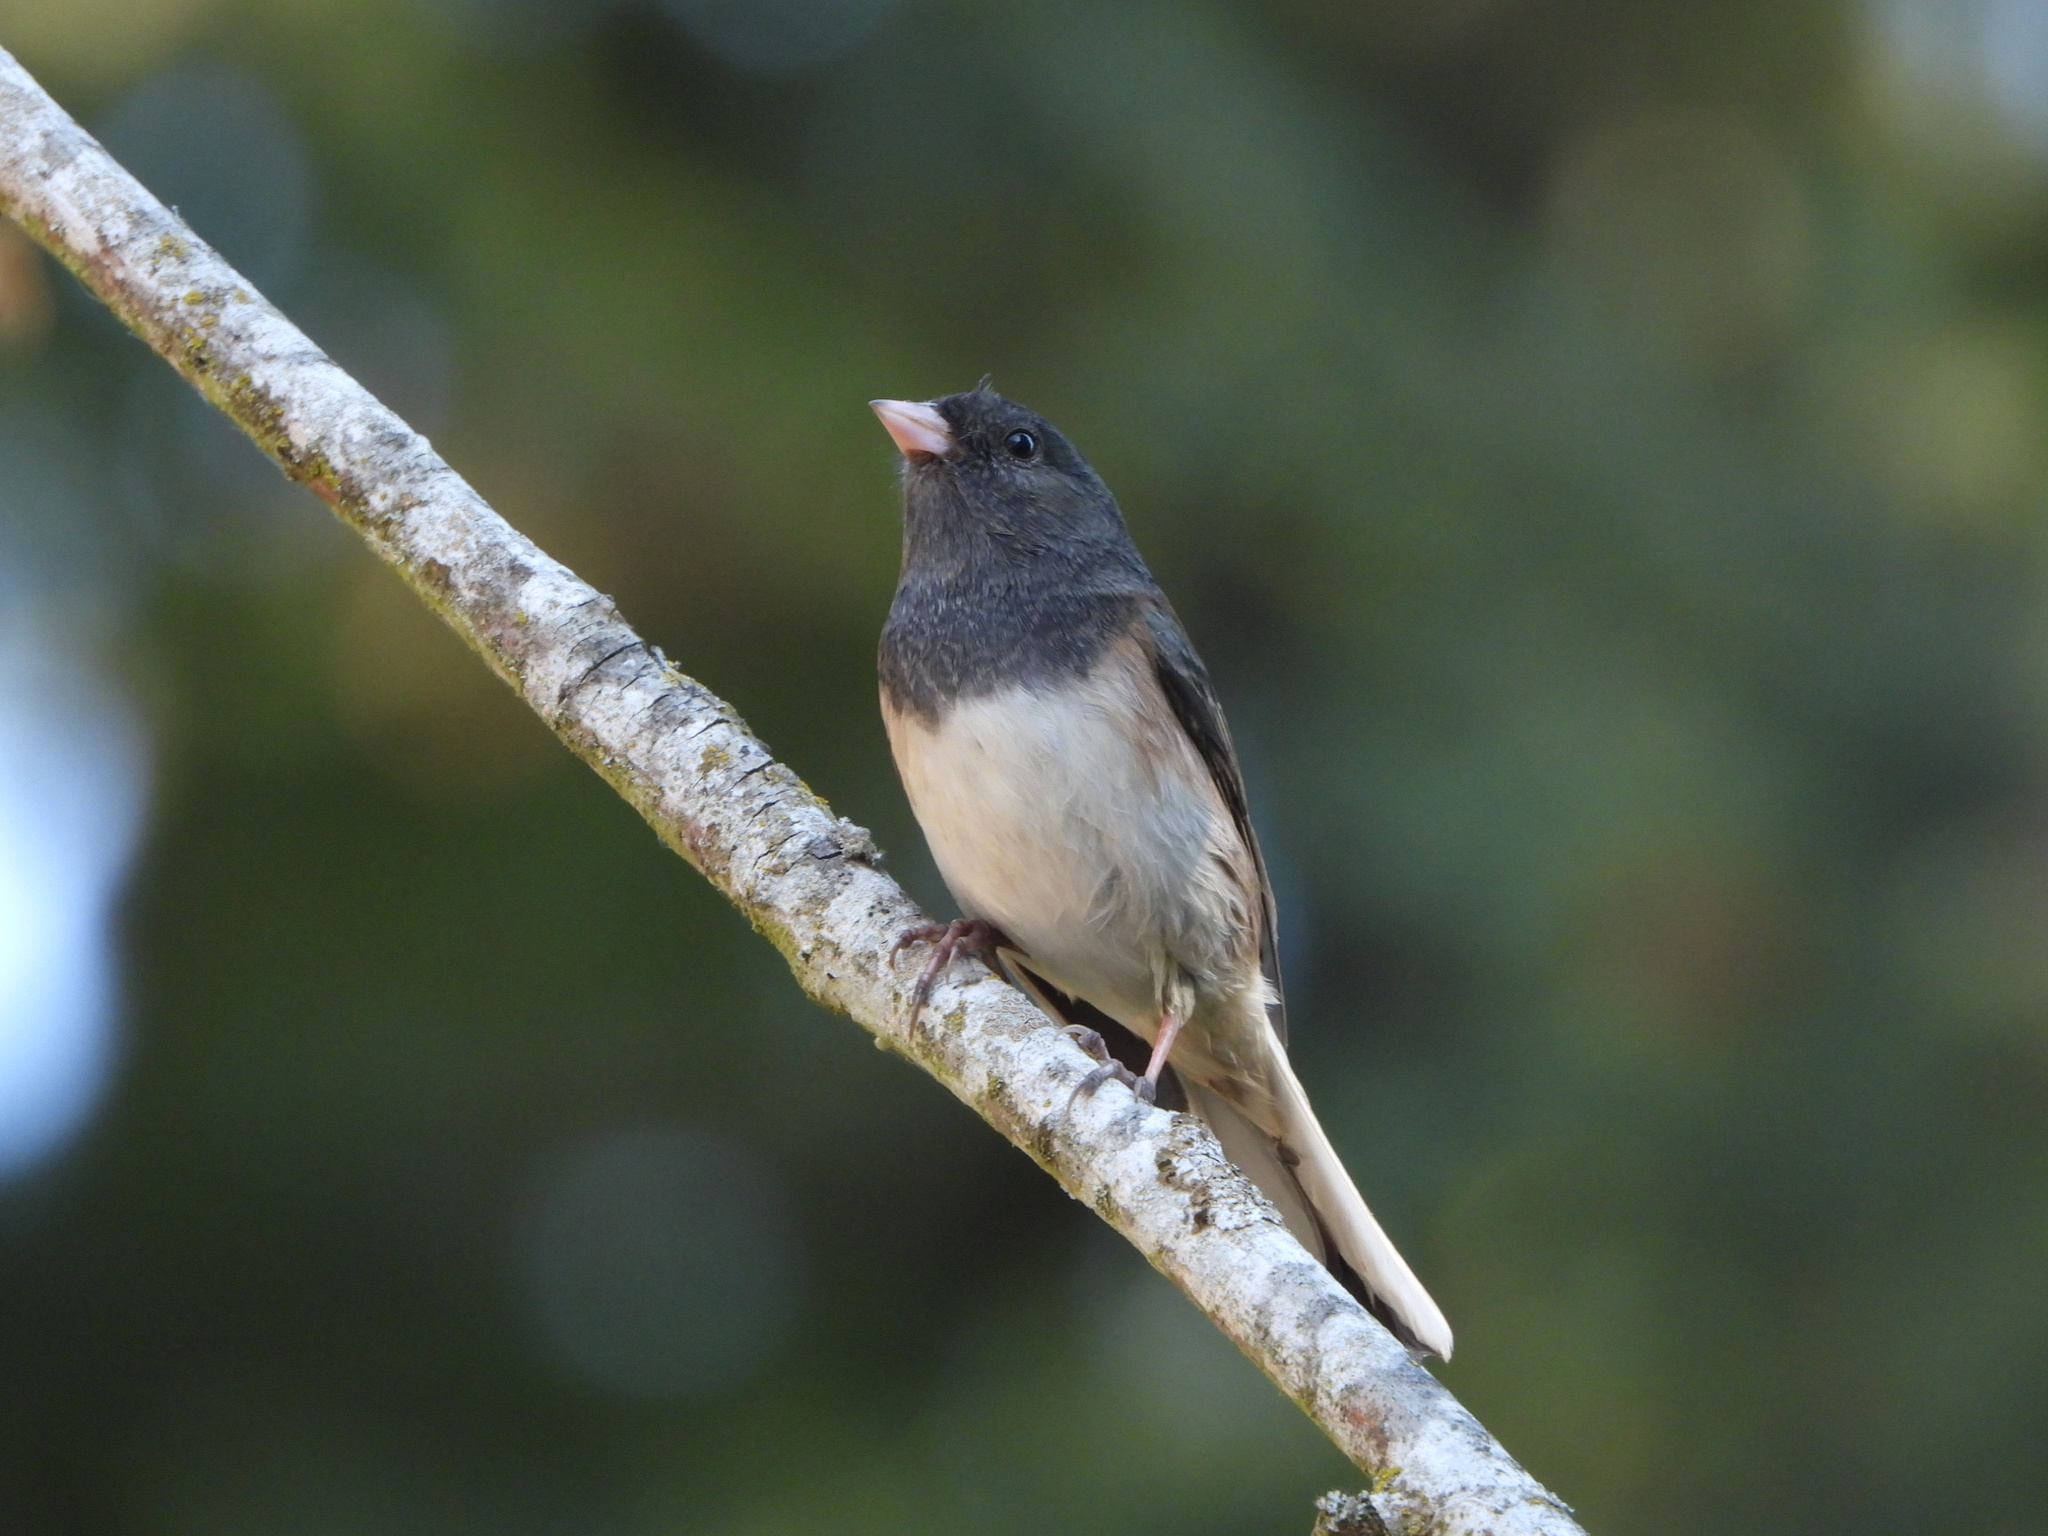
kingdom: Animalia
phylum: Chordata
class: Aves
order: Passeriformes
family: Passerellidae
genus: Junco
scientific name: Junco hyemalis
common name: Dark-eyed junco
